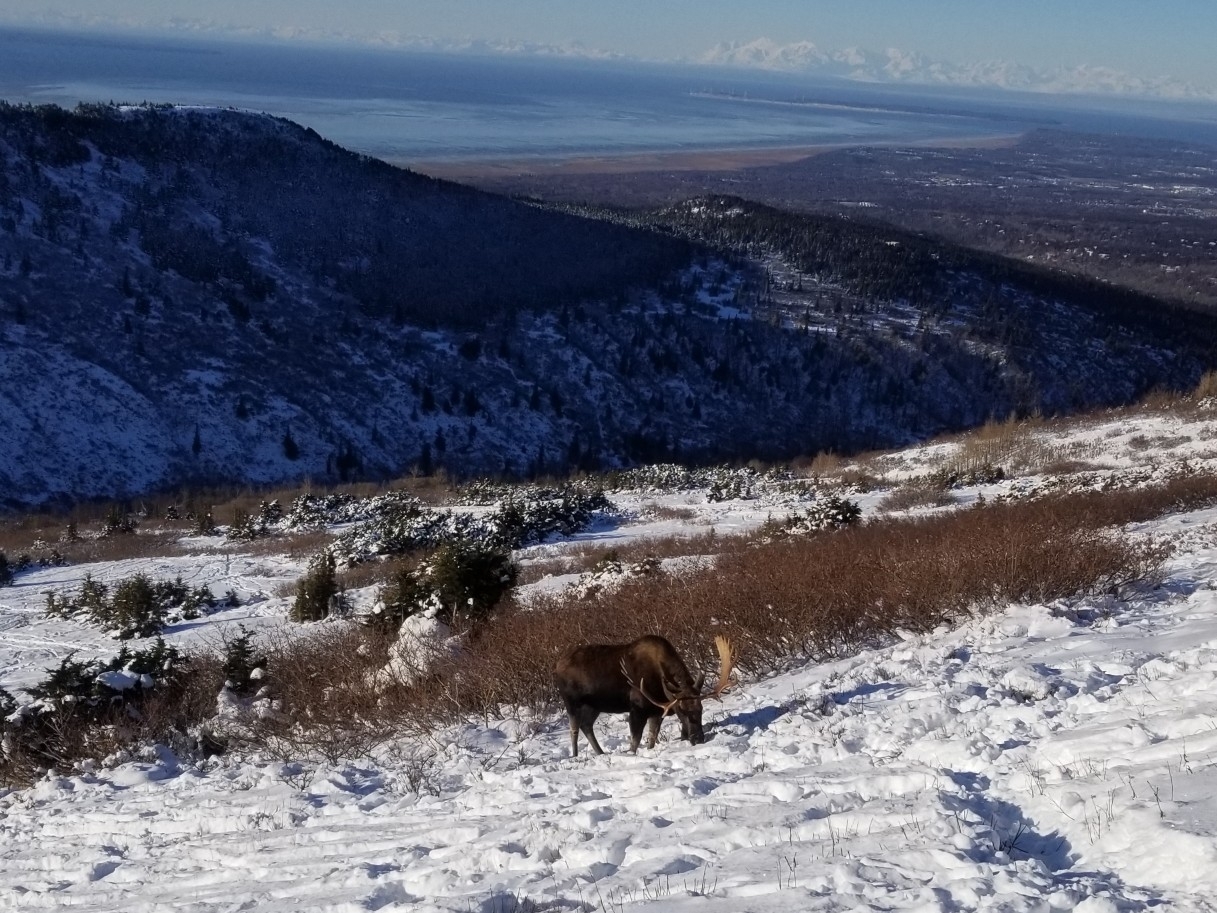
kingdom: Animalia
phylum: Chordata
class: Mammalia
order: Artiodactyla
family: Cervidae
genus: Alces
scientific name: Alces alces
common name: Moose
